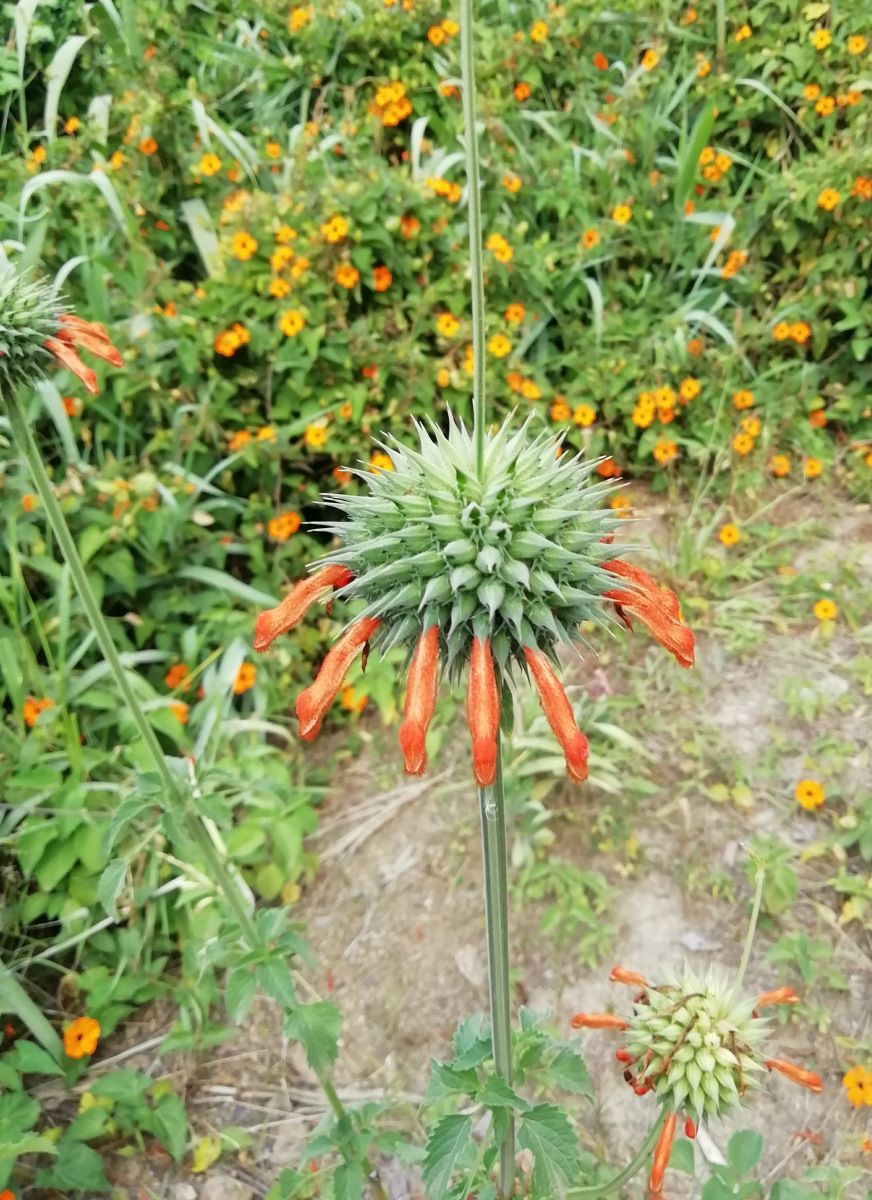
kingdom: Plantae
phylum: Tracheophyta
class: Magnoliopsida
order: Lamiales
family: Lamiaceae
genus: Leonotis
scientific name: Leonotis nepetifolia
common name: Christmas candlestick
